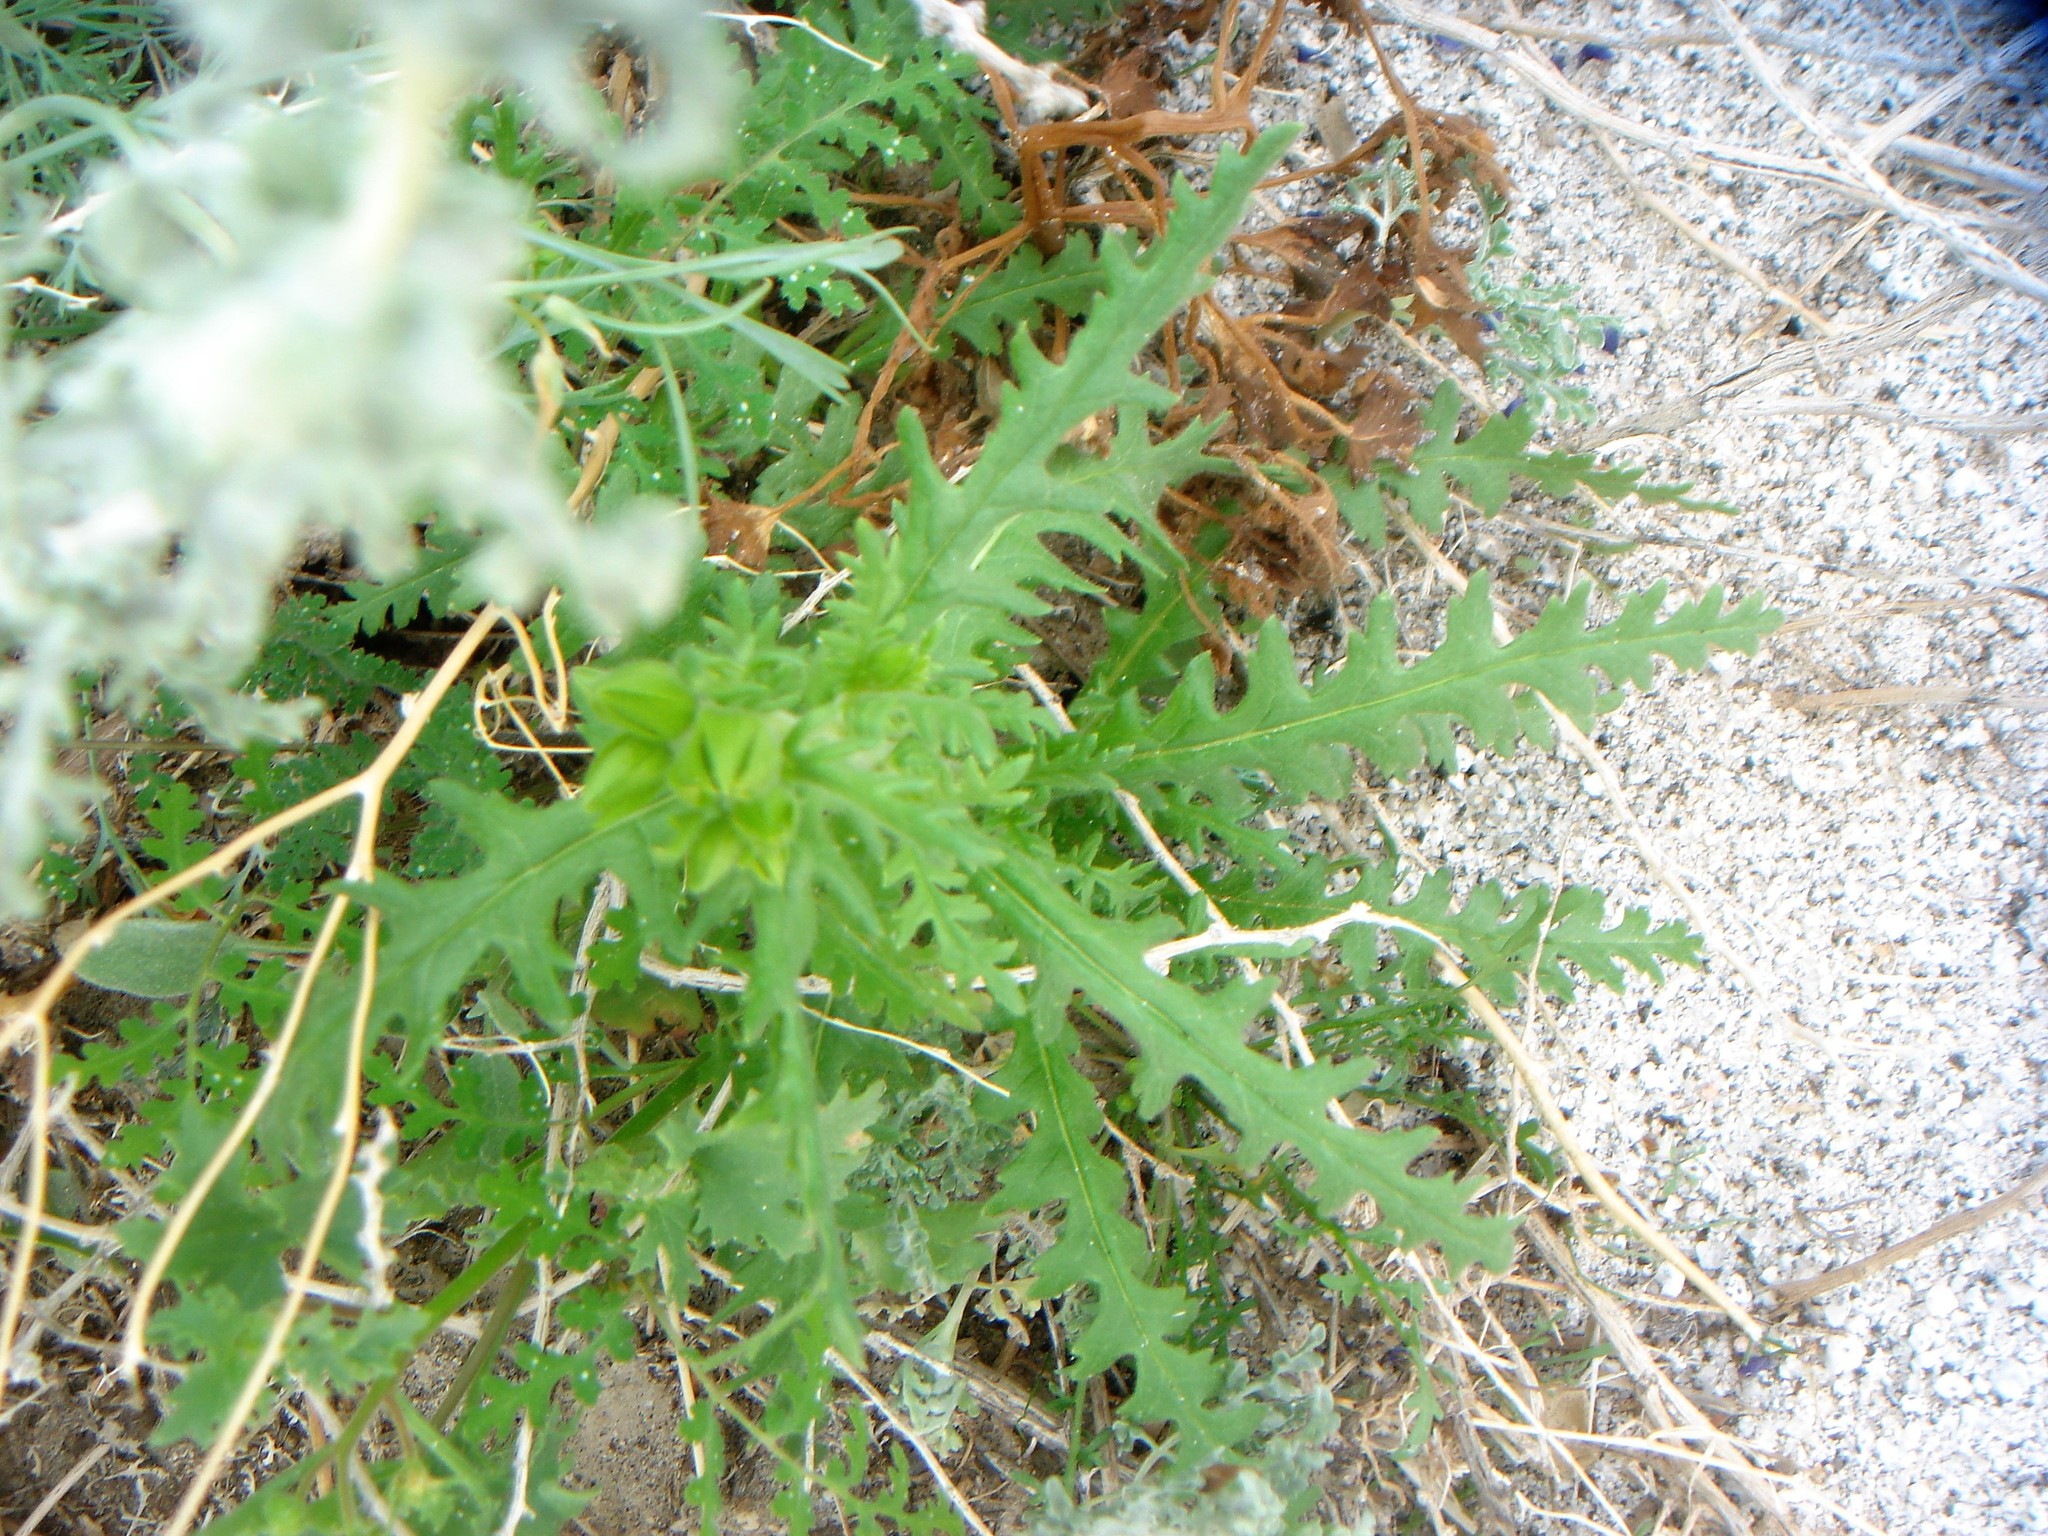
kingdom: Plantae
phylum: Tracheophyta
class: Magnoliopsida
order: Boraginales
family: Hydrophyllaceae
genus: Emmenanthe
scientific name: Emmenanthe penduliflora
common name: Whispering-bells
